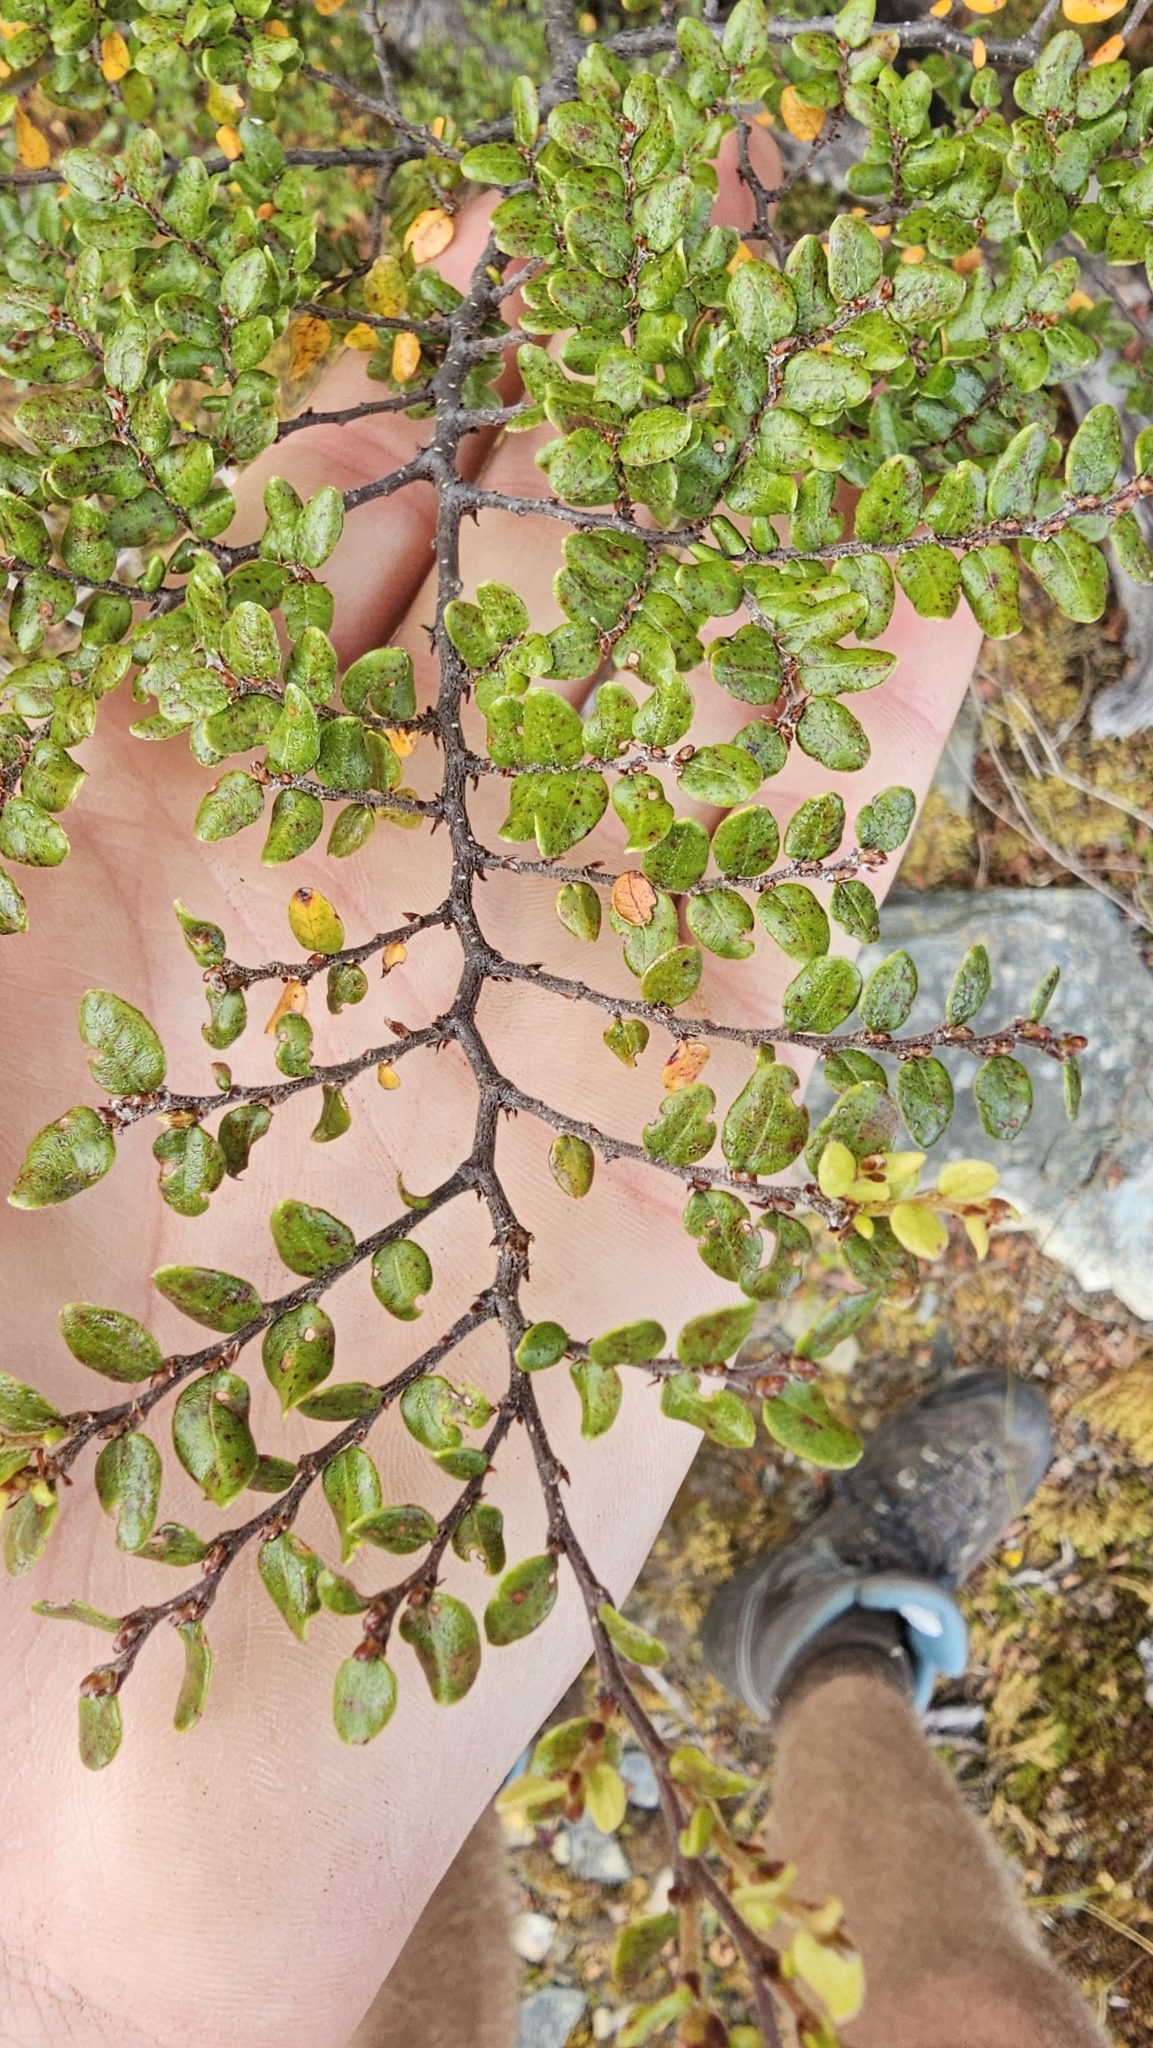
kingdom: Plantae
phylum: Tracheophyta
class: Magnoliopsida
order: Fagales
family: Nothofagaceae
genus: Nothofagus
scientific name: Nothofagus cliffortioides
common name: Mountain beech
